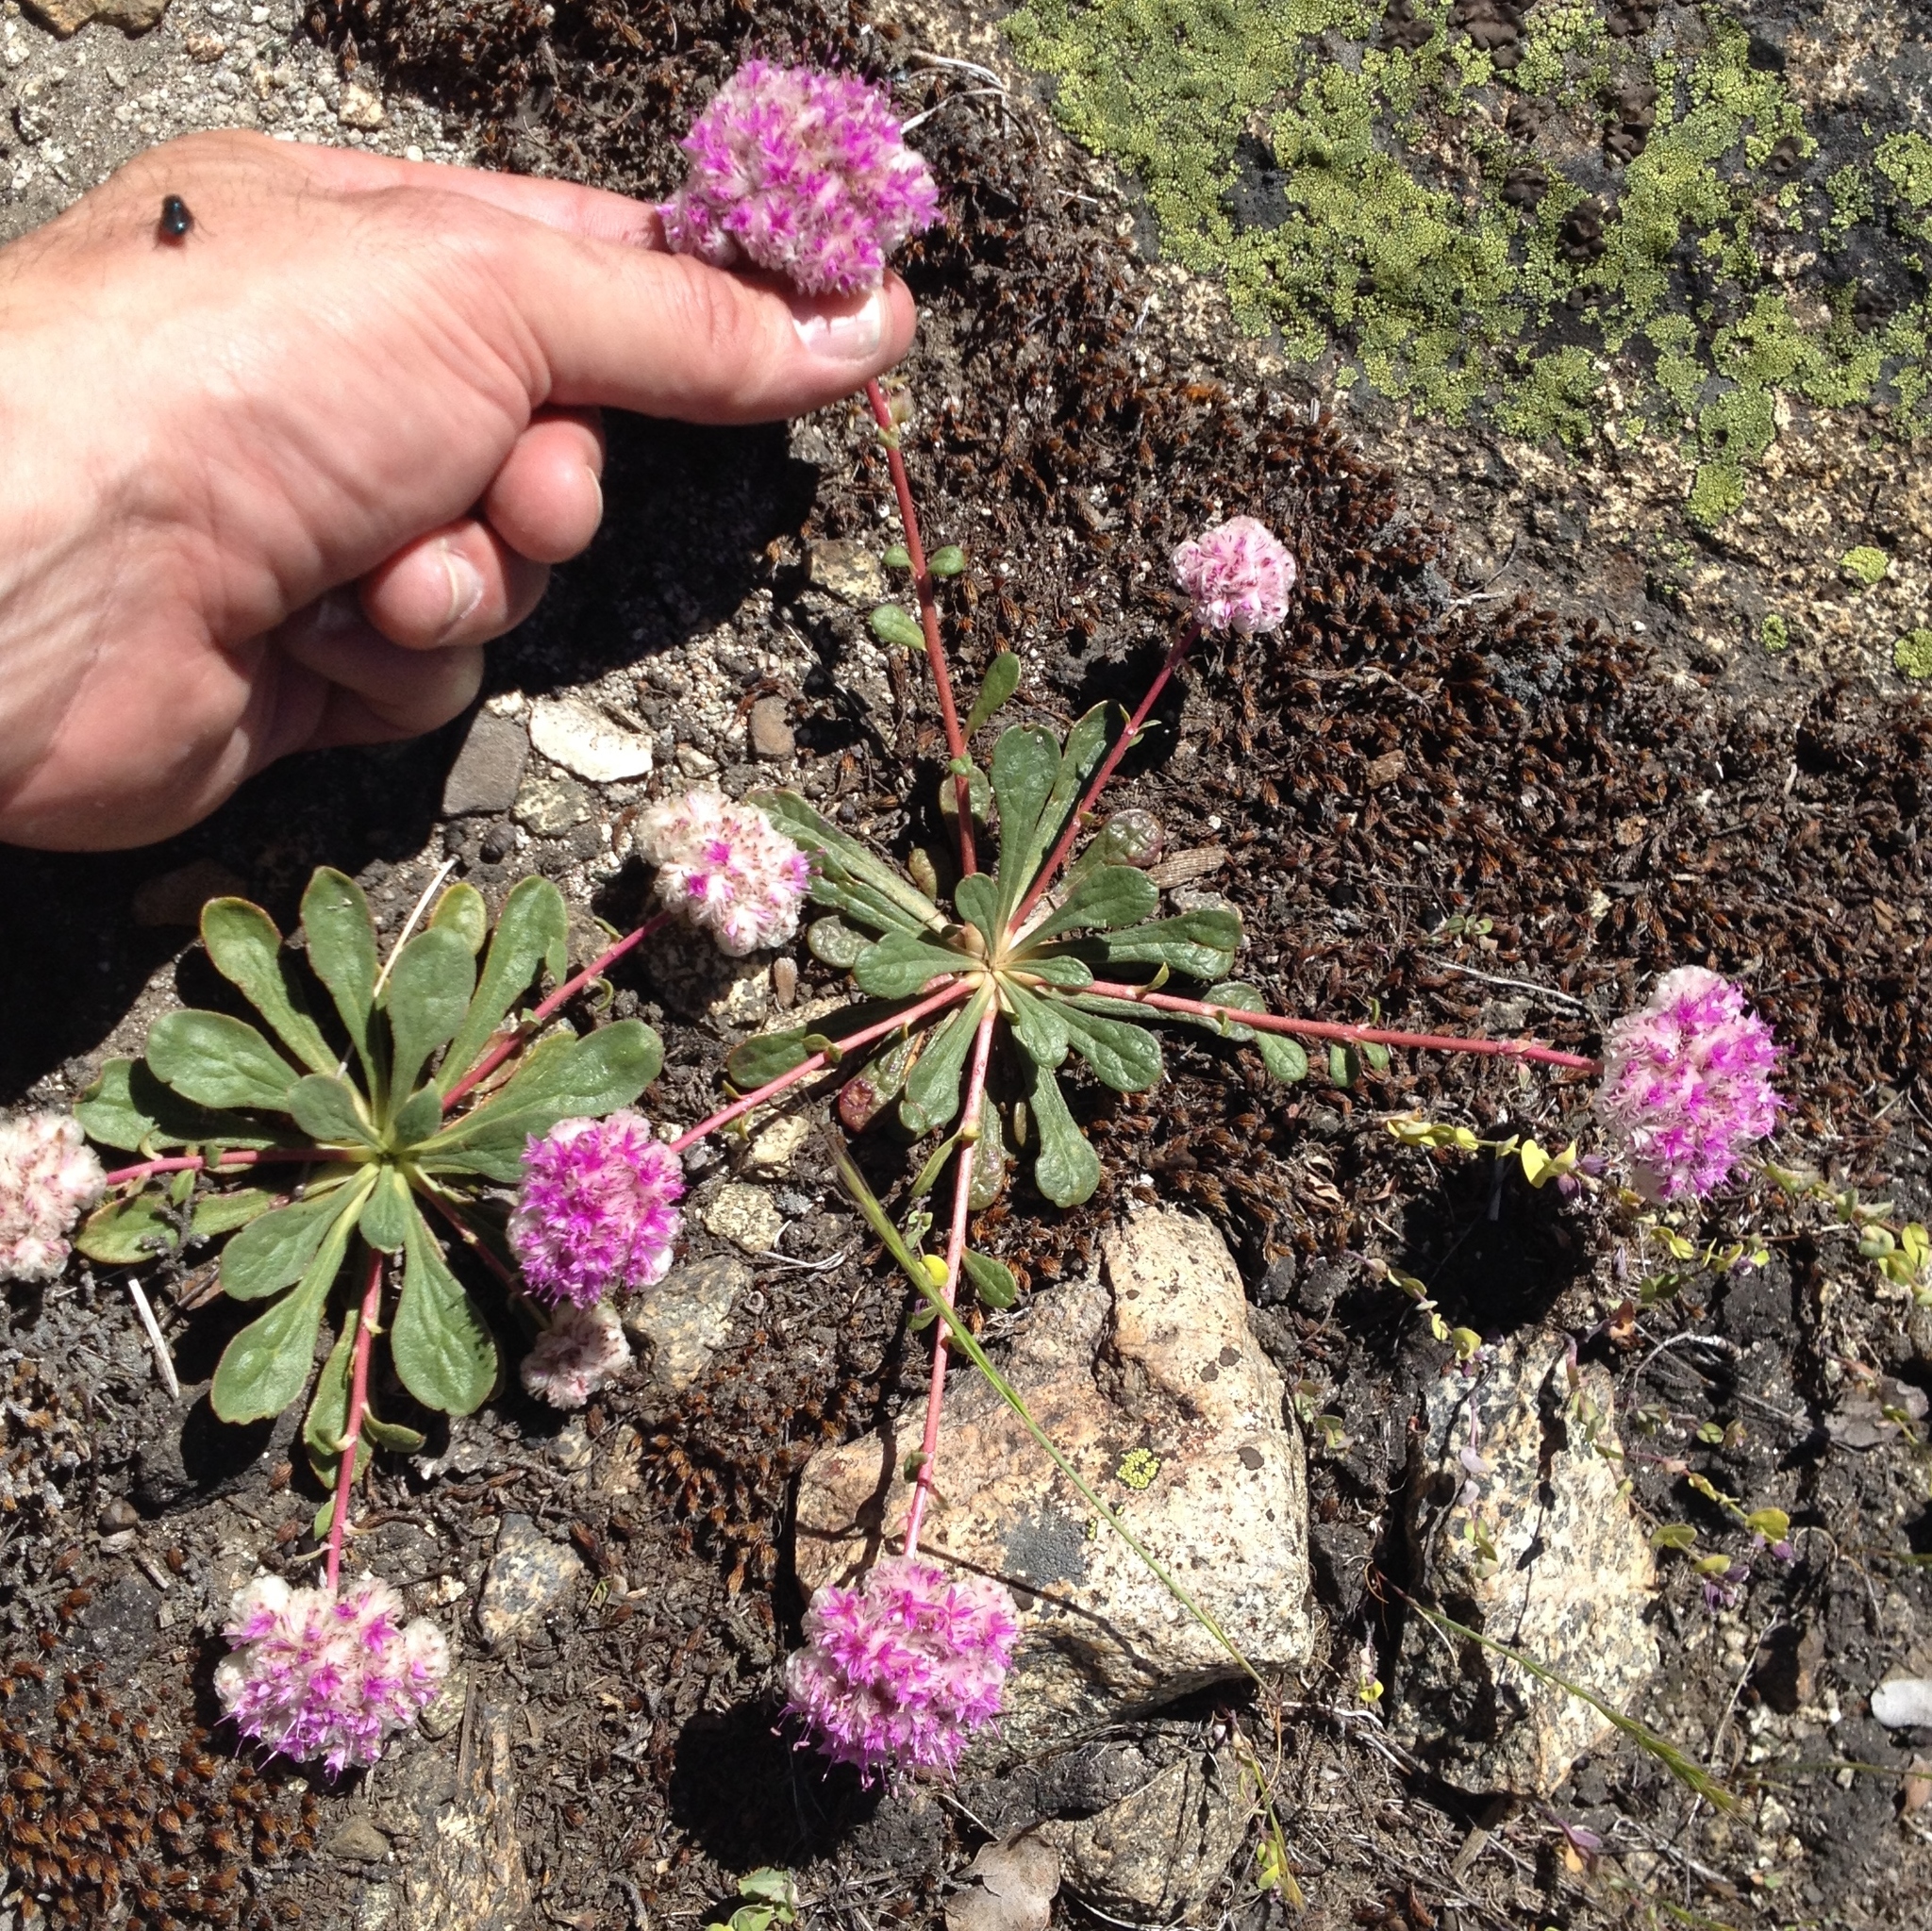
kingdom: Plantae
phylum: Tracheophyta
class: Magnoliopsida
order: Caryophyllales
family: Montiaceae
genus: Calyptridium
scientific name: Calyptridium monospermum
